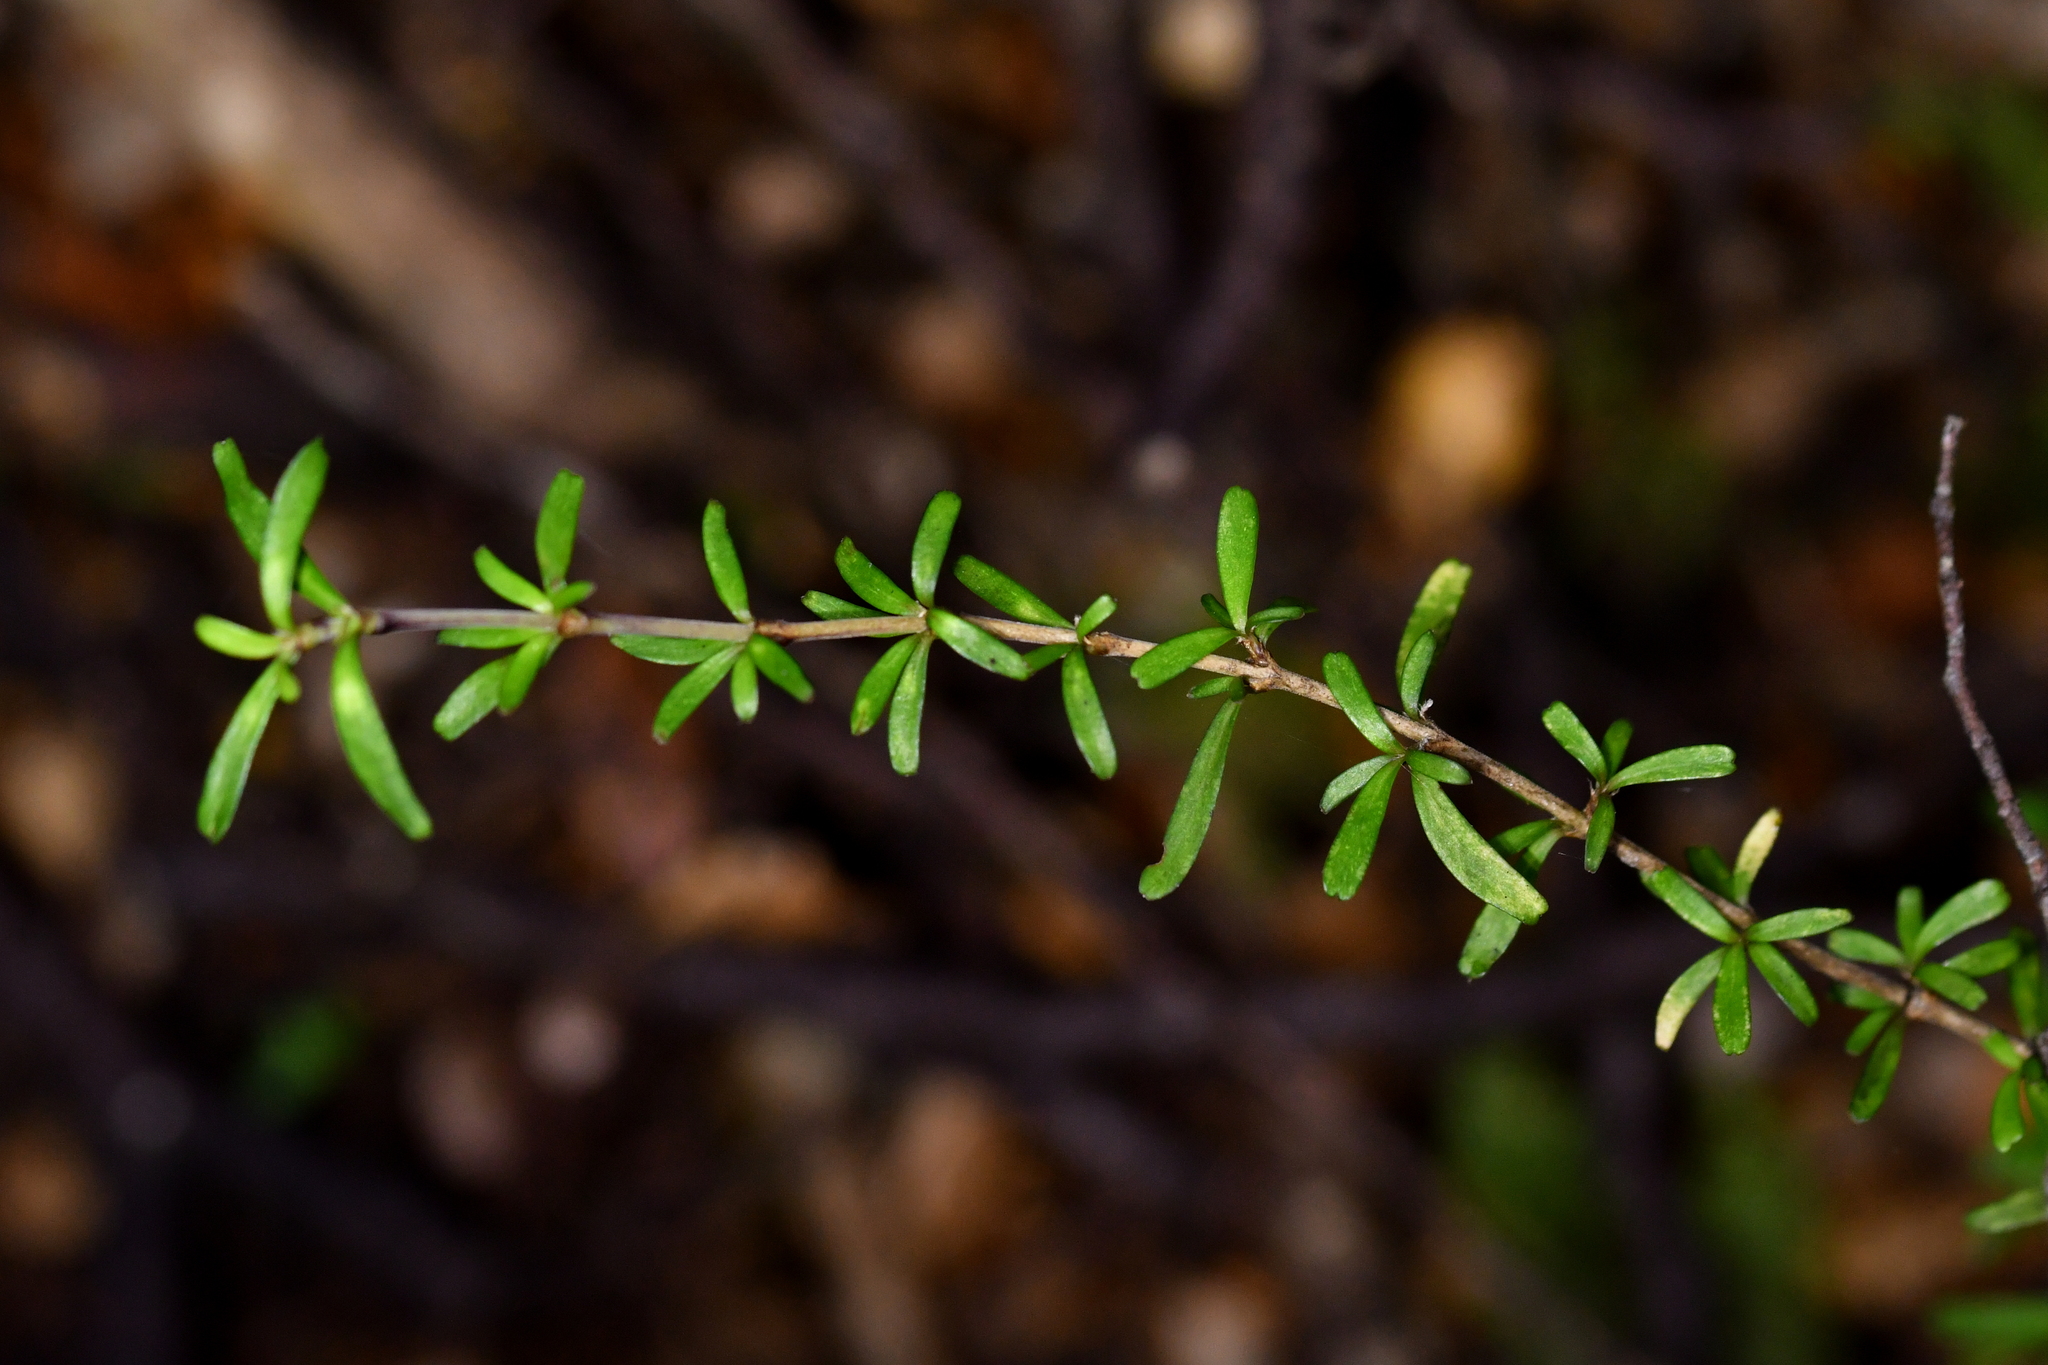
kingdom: Plantae
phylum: Tracheophyta
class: Magnoliopsida
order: Gentianales
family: Rubiaceae
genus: Coprosma
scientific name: Coprosma cuneata
